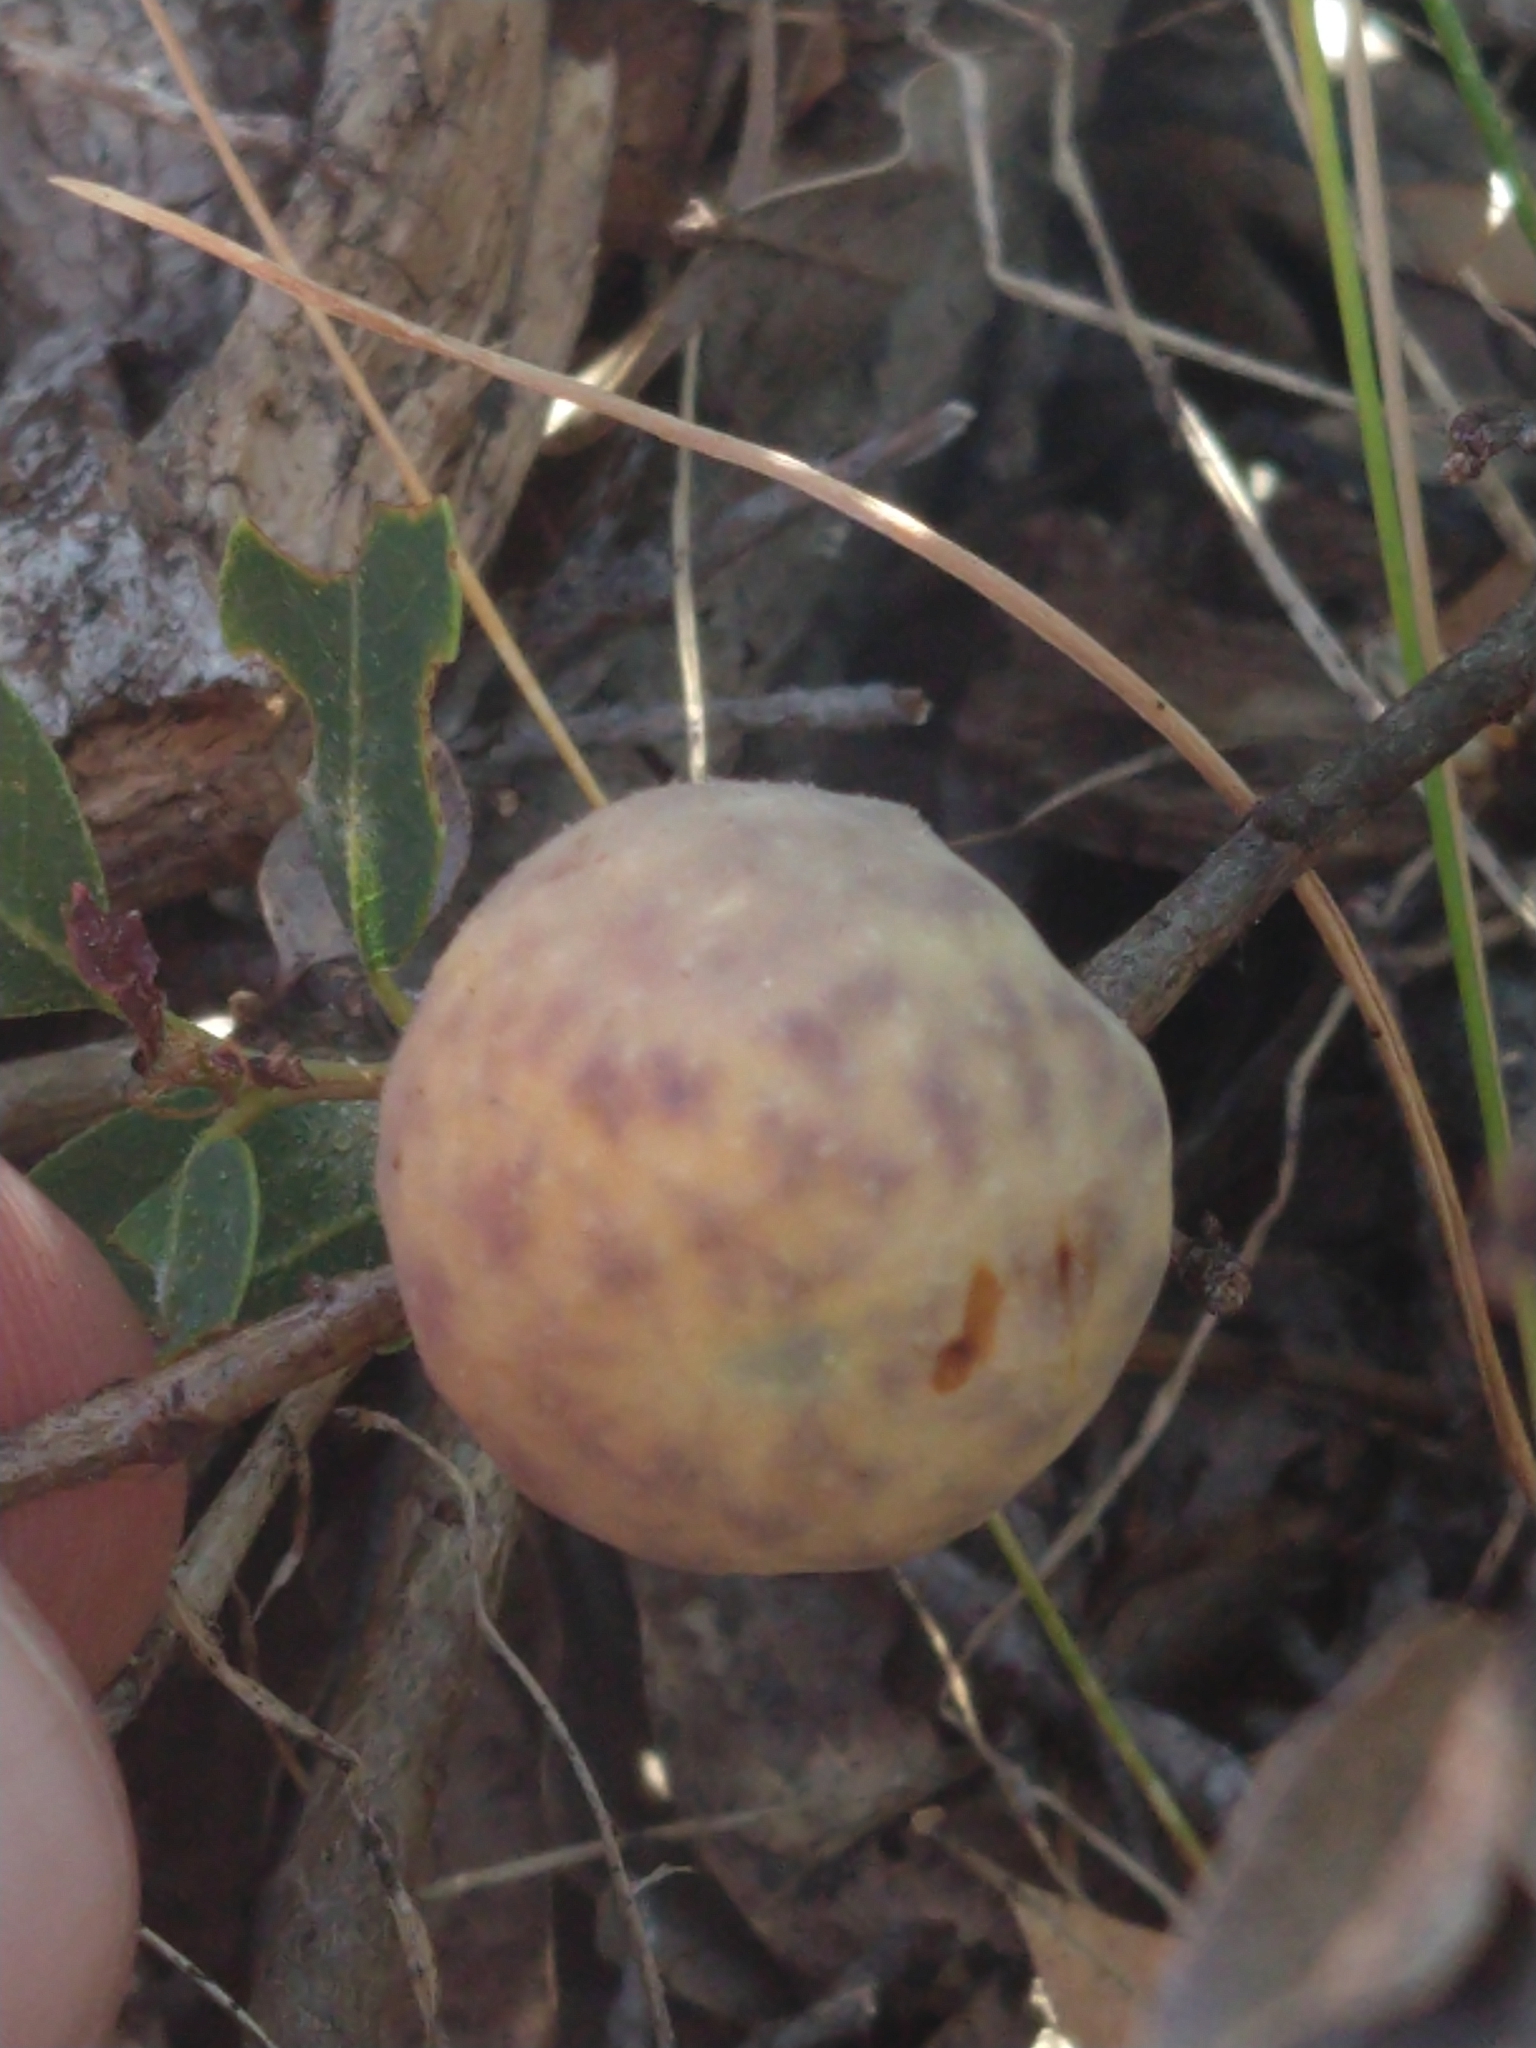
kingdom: Animalia
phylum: Arthropoda
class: Insecta
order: Hymenoptera
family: Cynipidae
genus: Andricus
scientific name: Andricus
